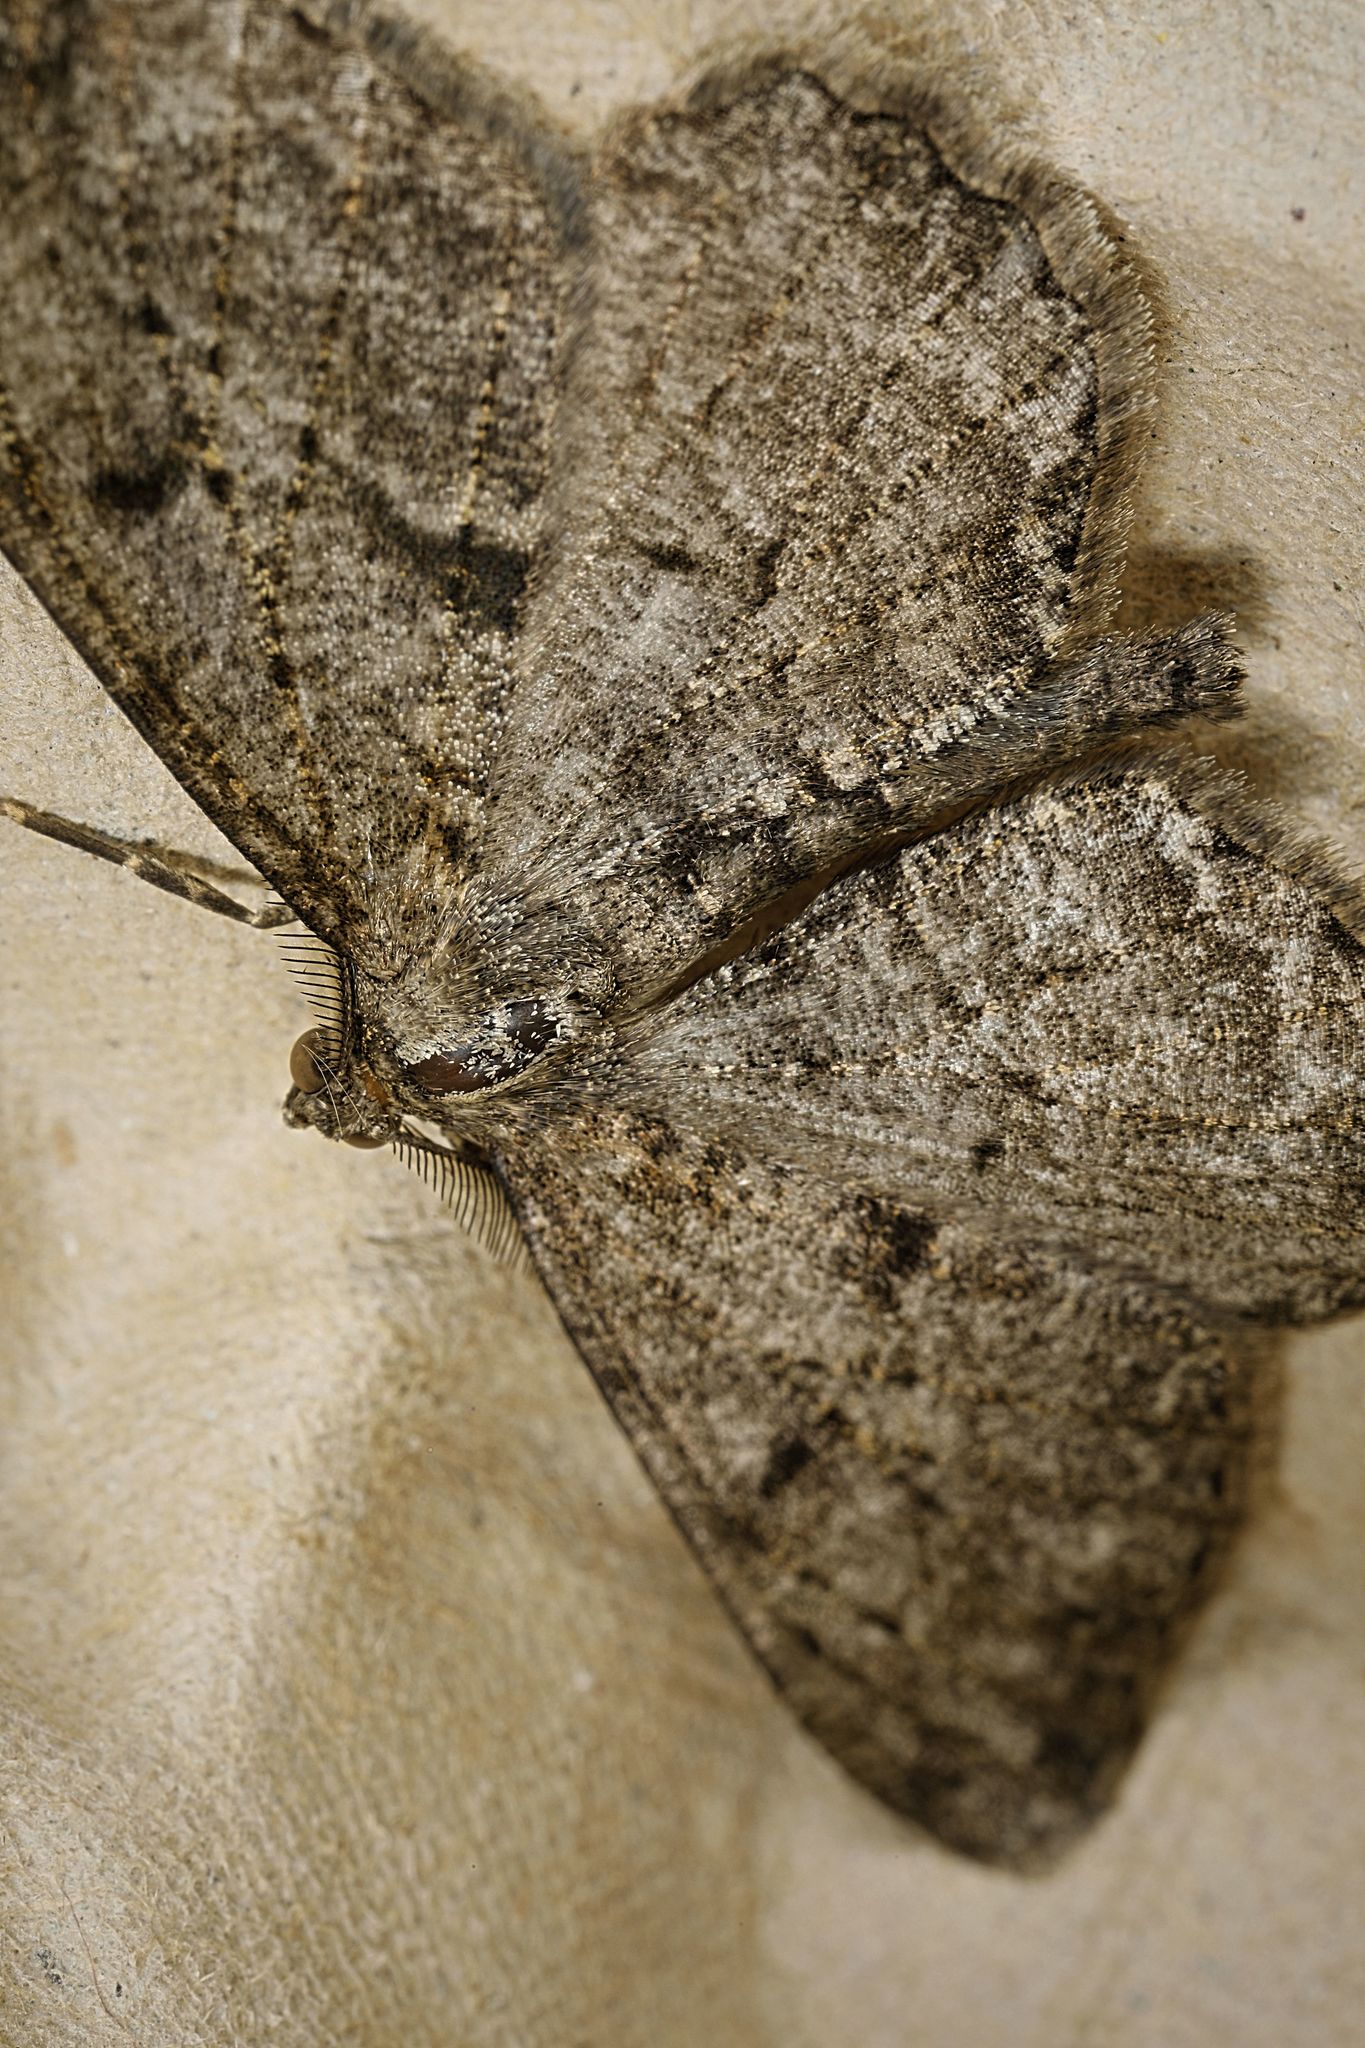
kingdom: Animalia
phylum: Arthropoda
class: Insecta
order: Lepidoptera
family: Geometridae
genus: Peribatodes
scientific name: Peribatodes rhomboidaria
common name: Willow beauty
